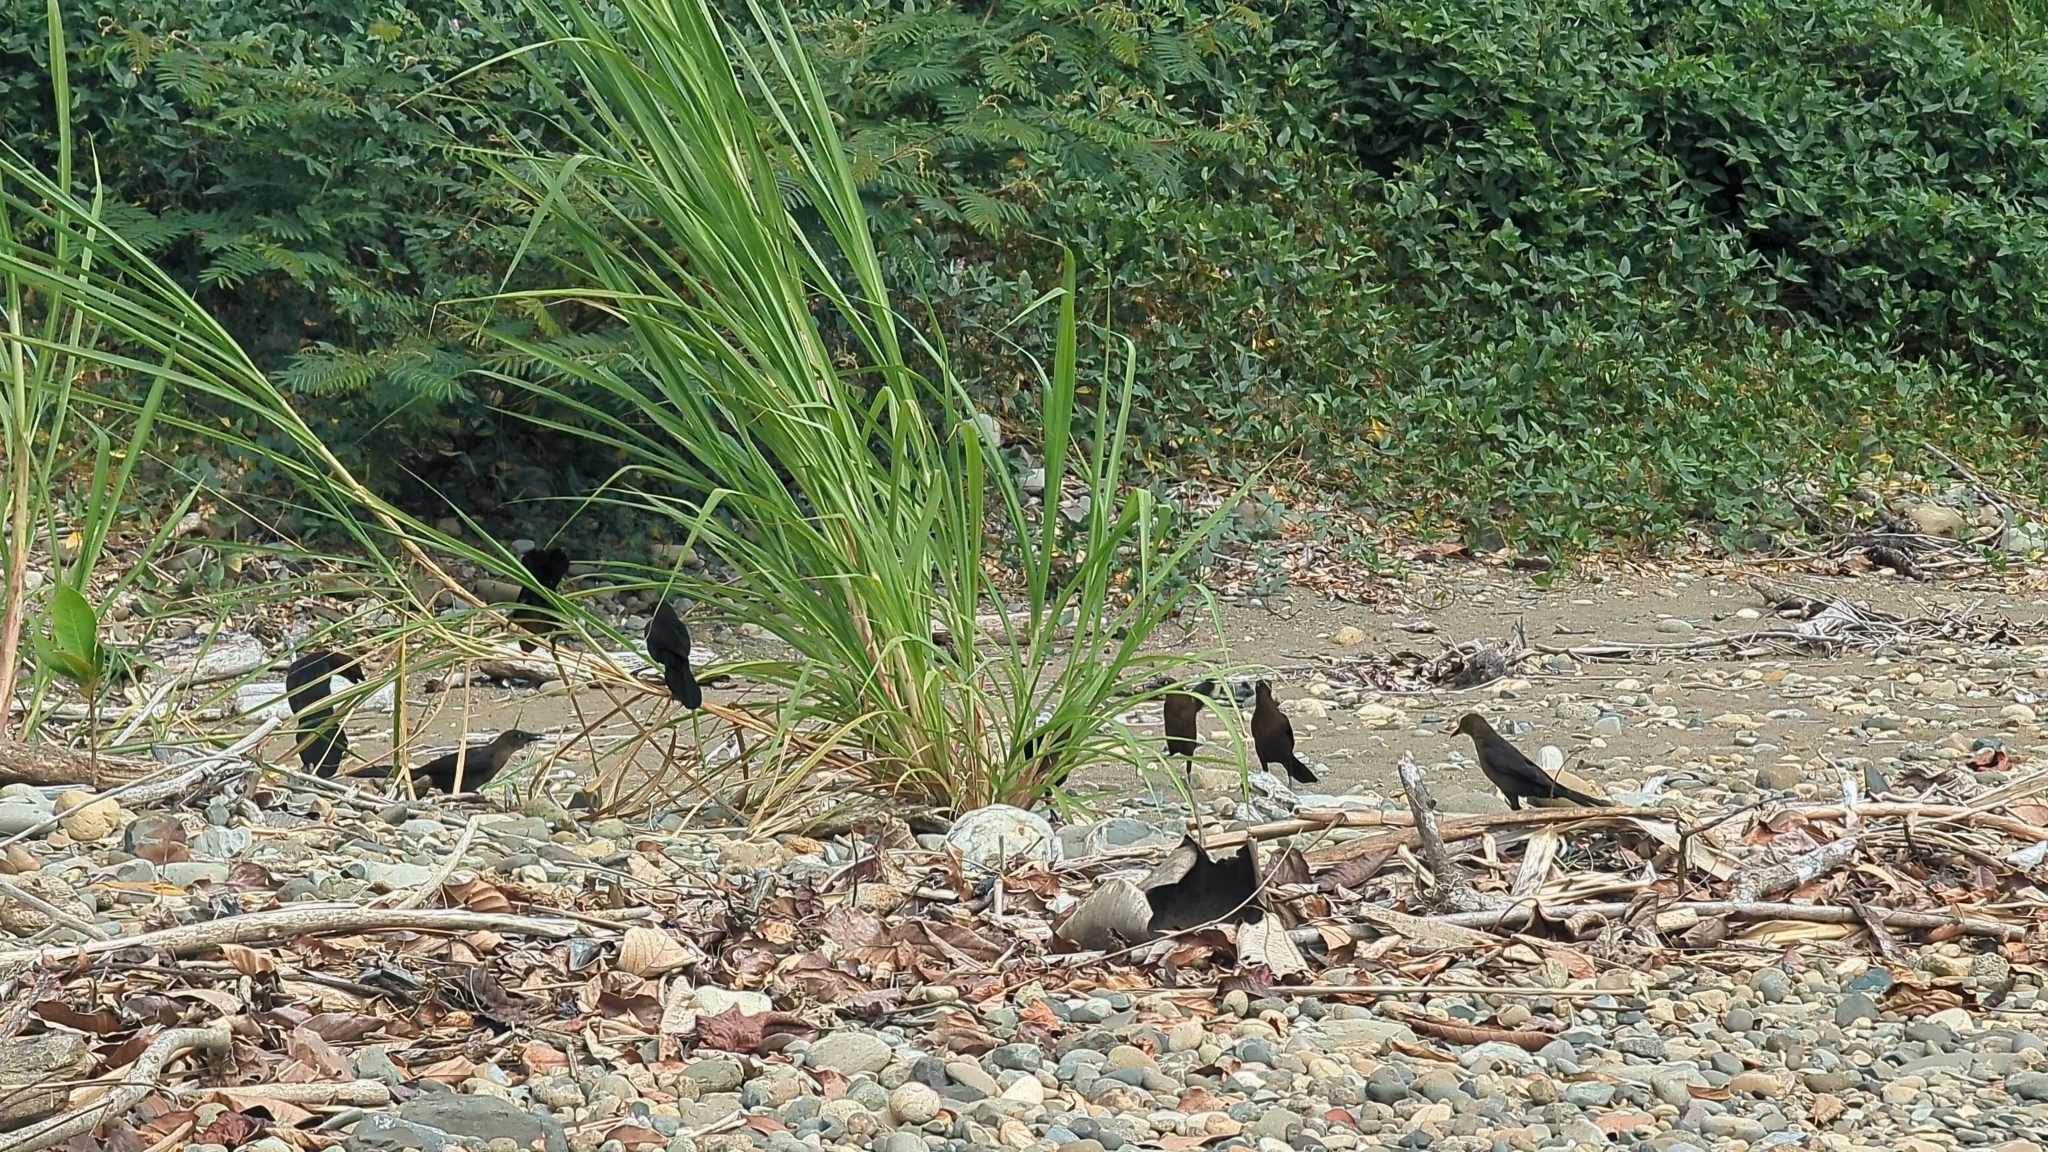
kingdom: Animalia
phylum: Chordata
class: Aves
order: Passeriformes
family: Icteridae
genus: Quiscalus
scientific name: Quiscalus mexicanus
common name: Great-tailed grackle
